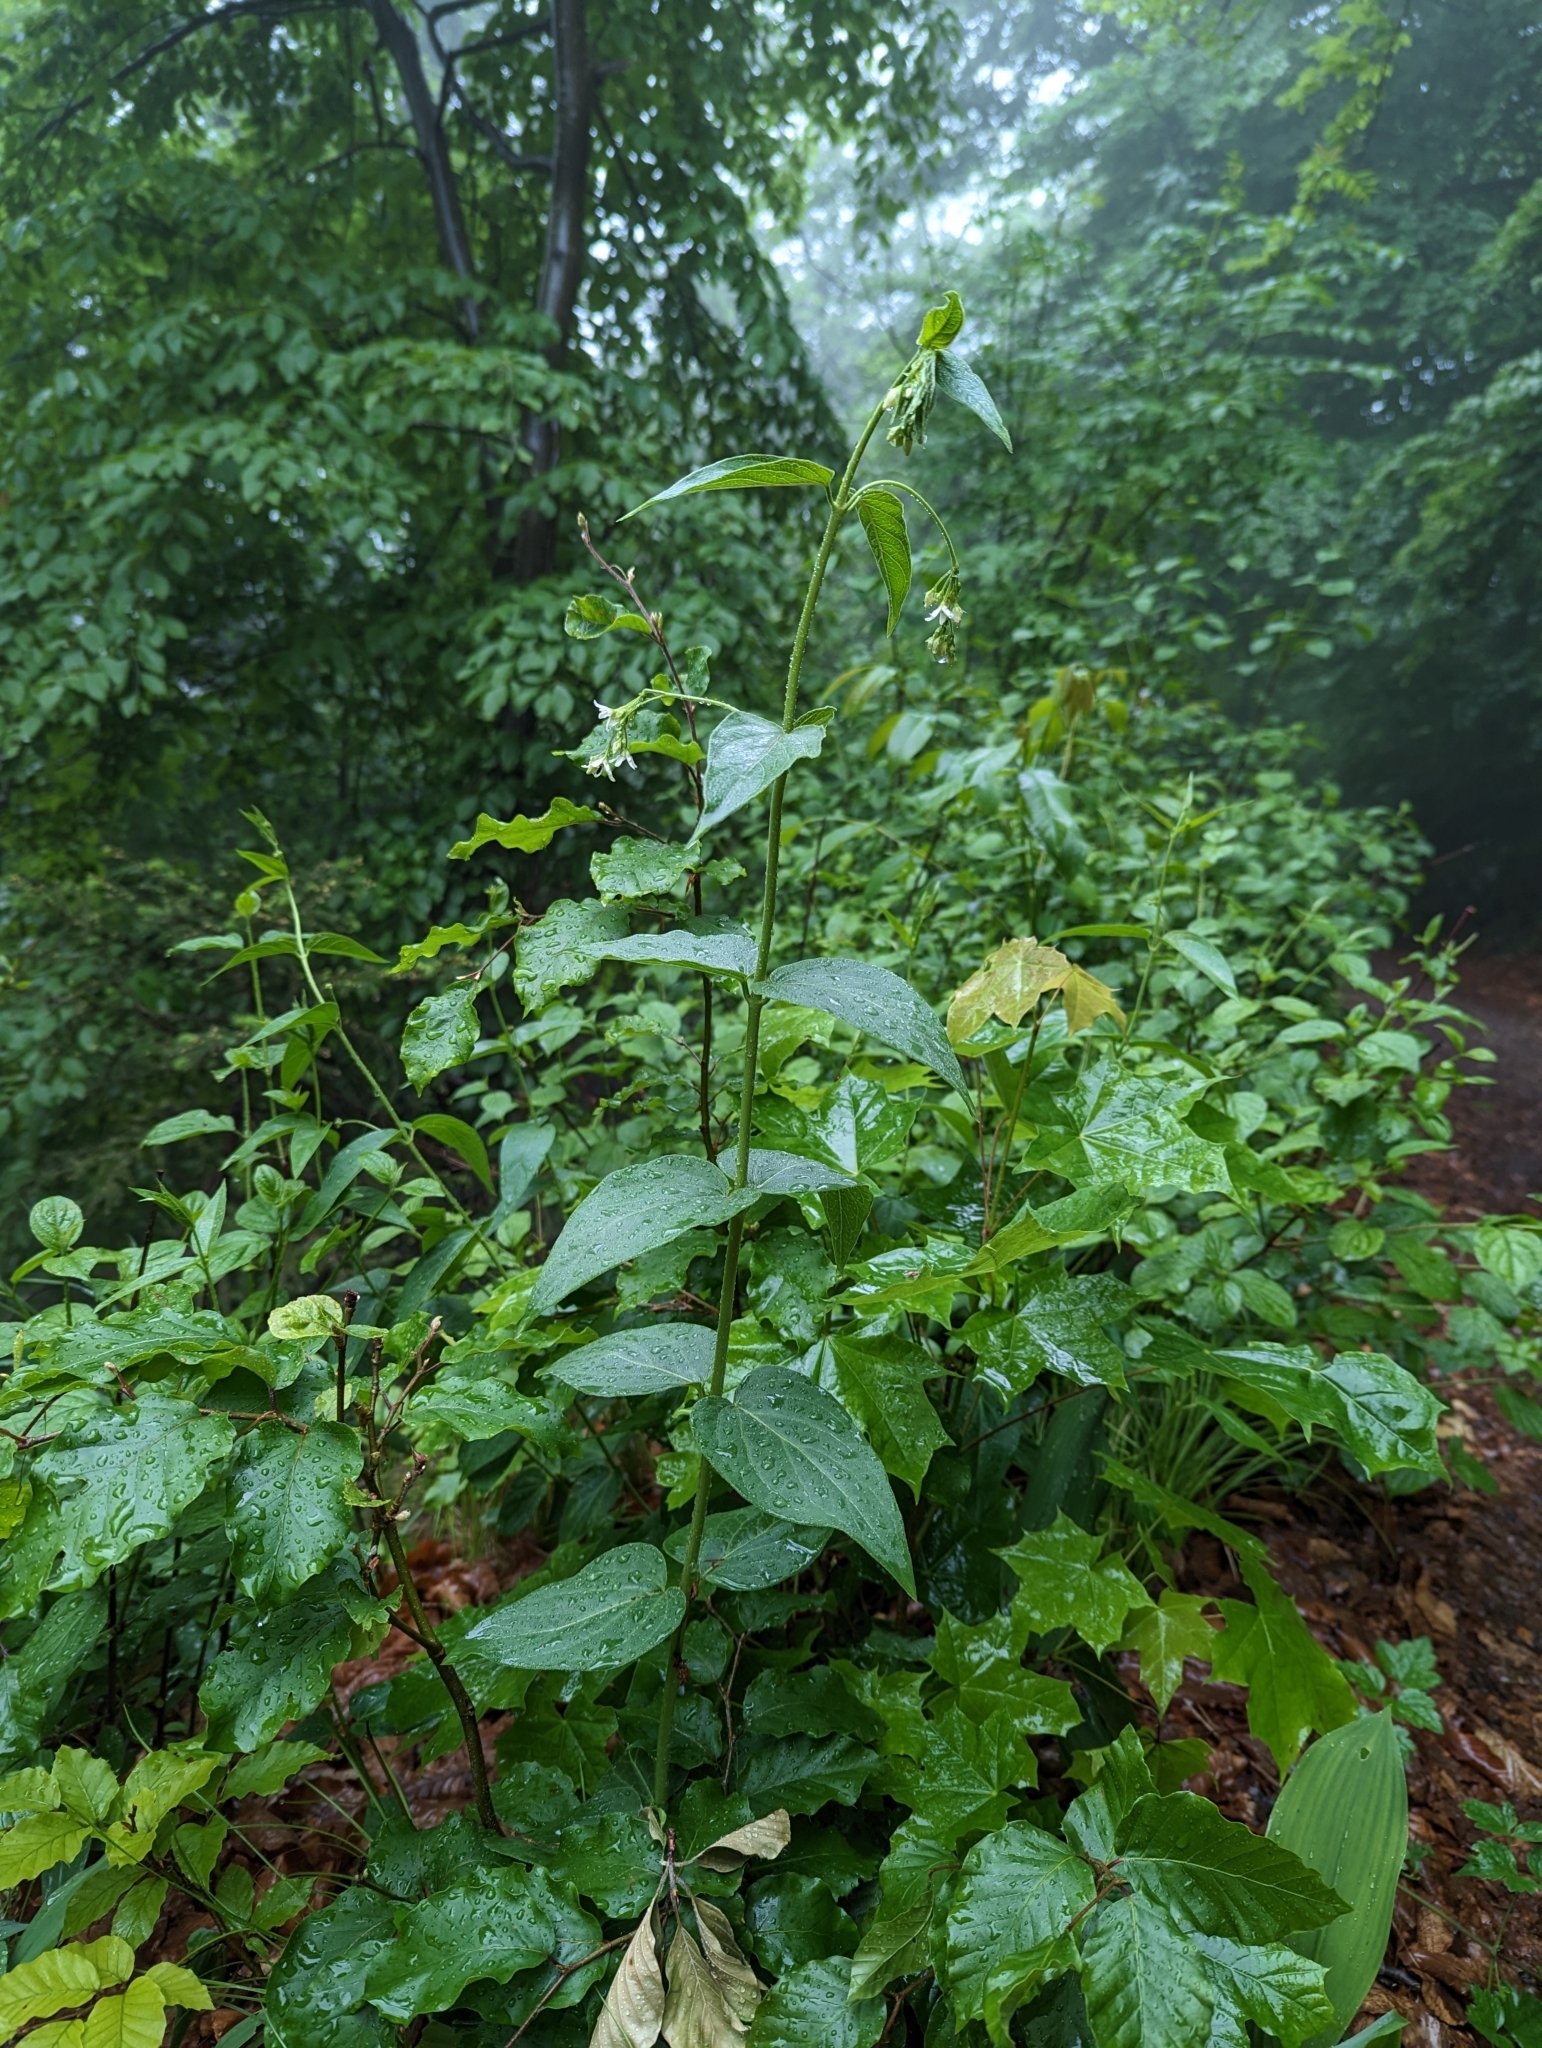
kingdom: Plantae
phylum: Tracheophyta
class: Magnoliopsida
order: Gentianales
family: Apocynaceae
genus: Vincetoxicum
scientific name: Vincetoxicum hirundinaria
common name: White swallowwort
